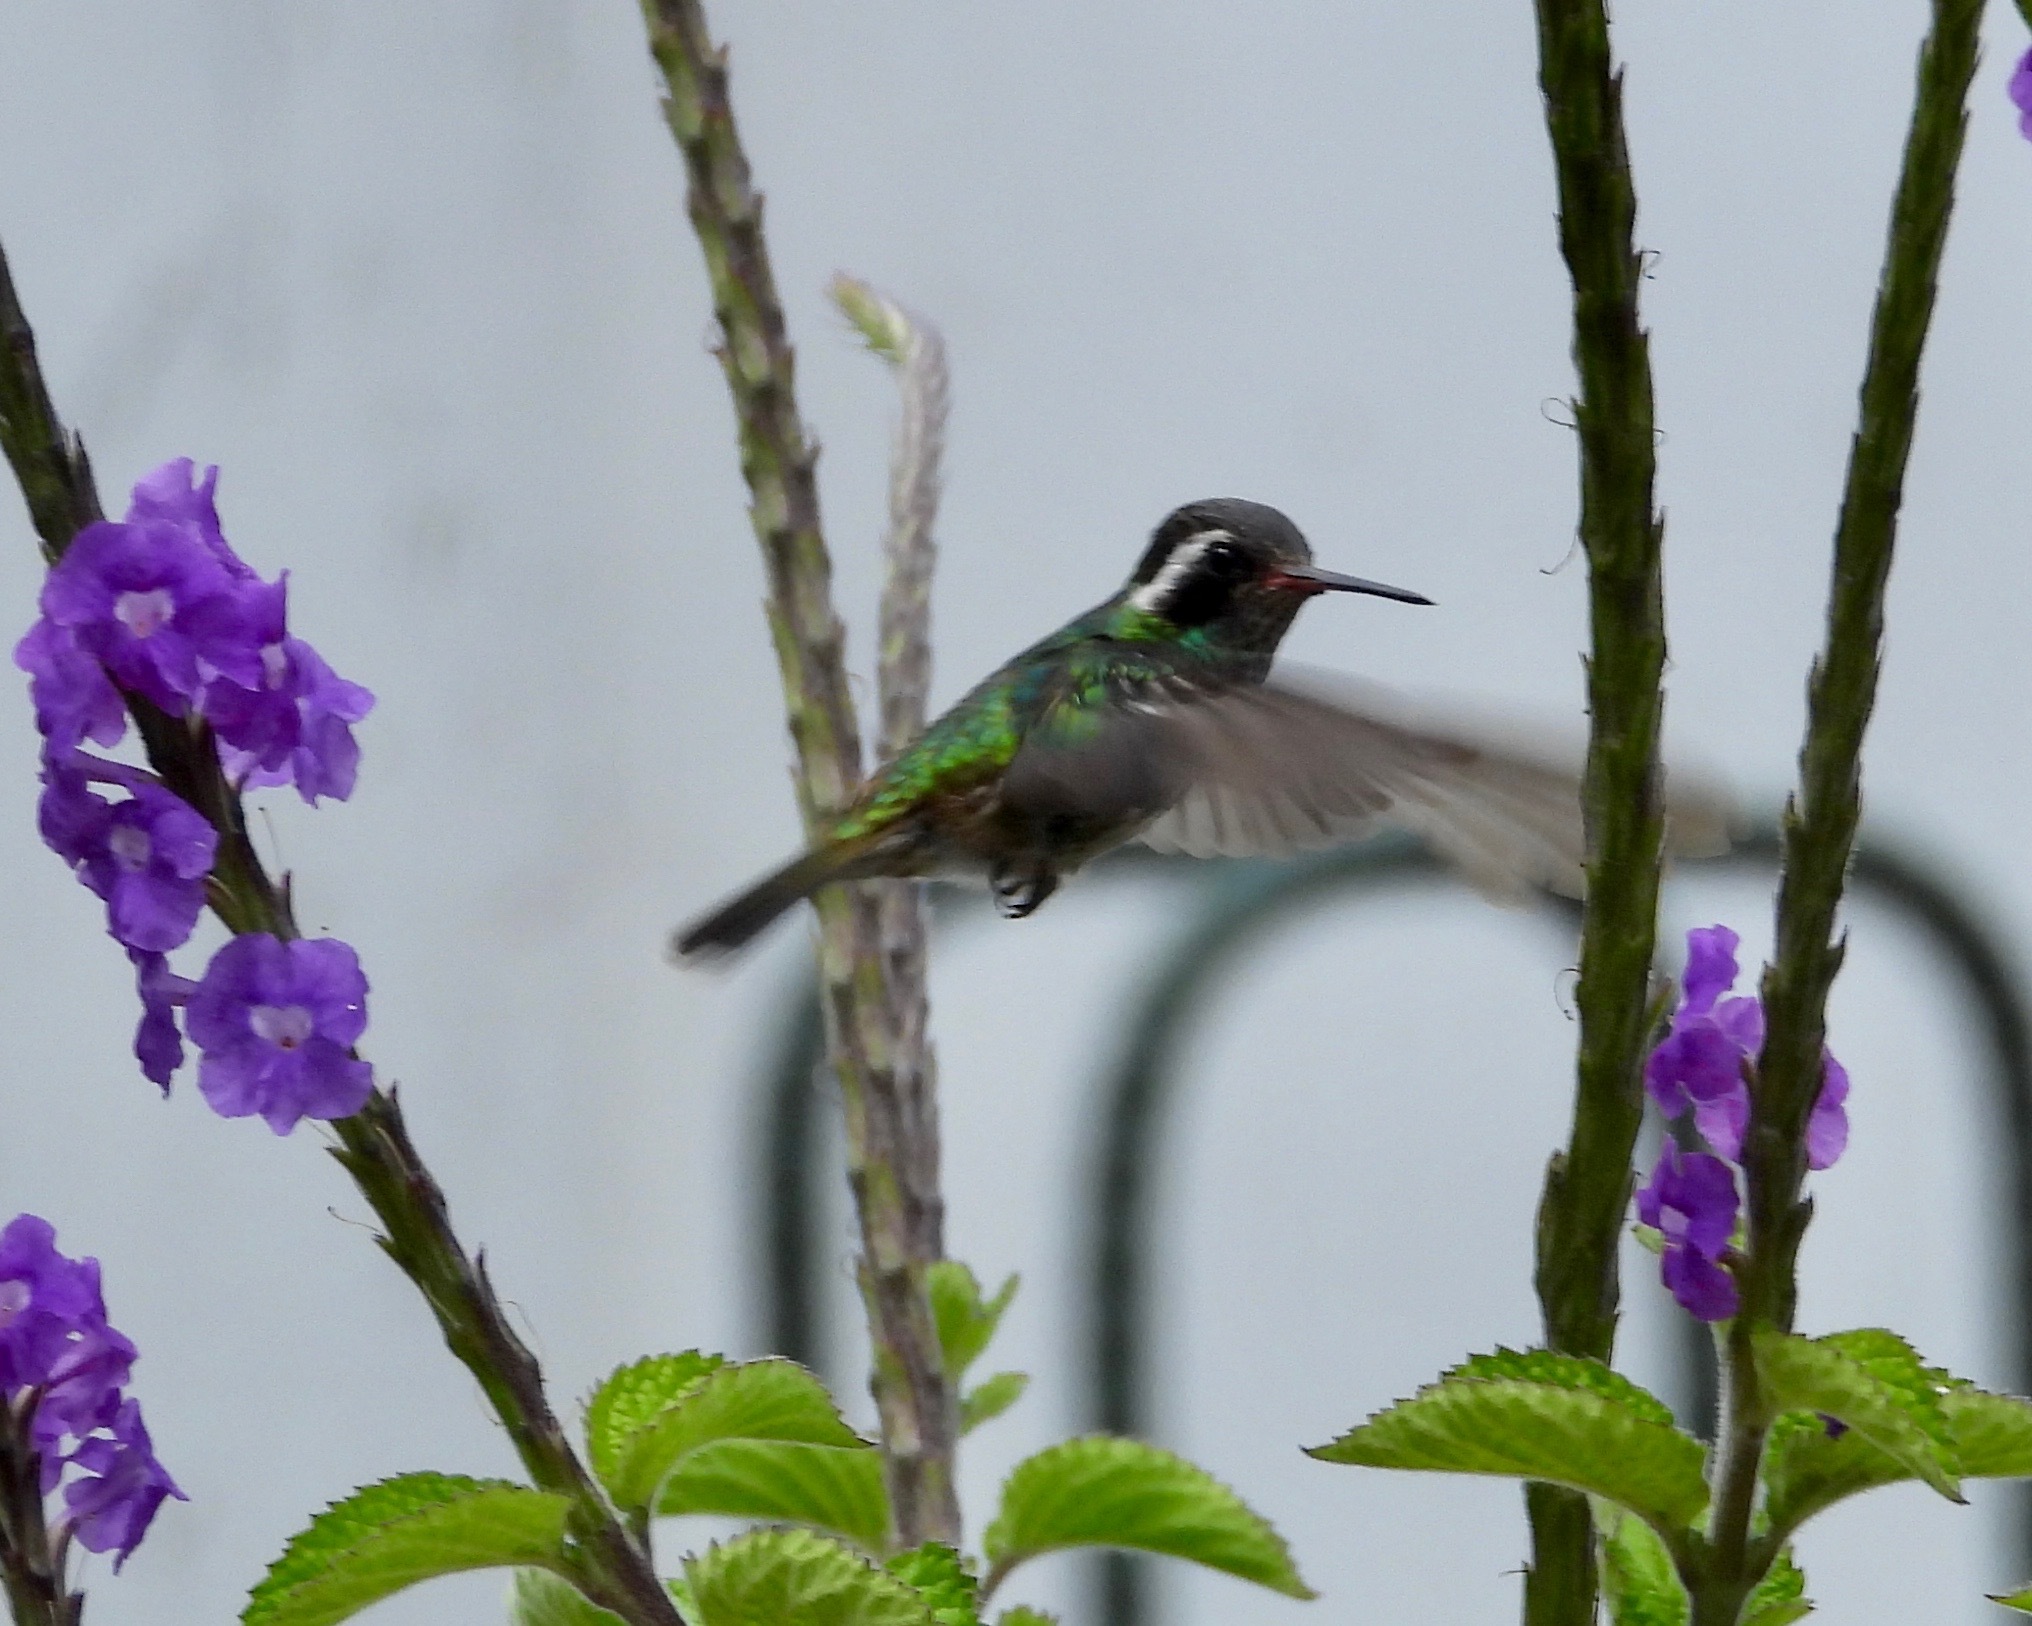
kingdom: Animalia
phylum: Chordata
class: Aves
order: Apodiformes
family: Trochilidae
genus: Basilinna
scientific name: Basilinna leucotis
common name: White-eared hummingbird
